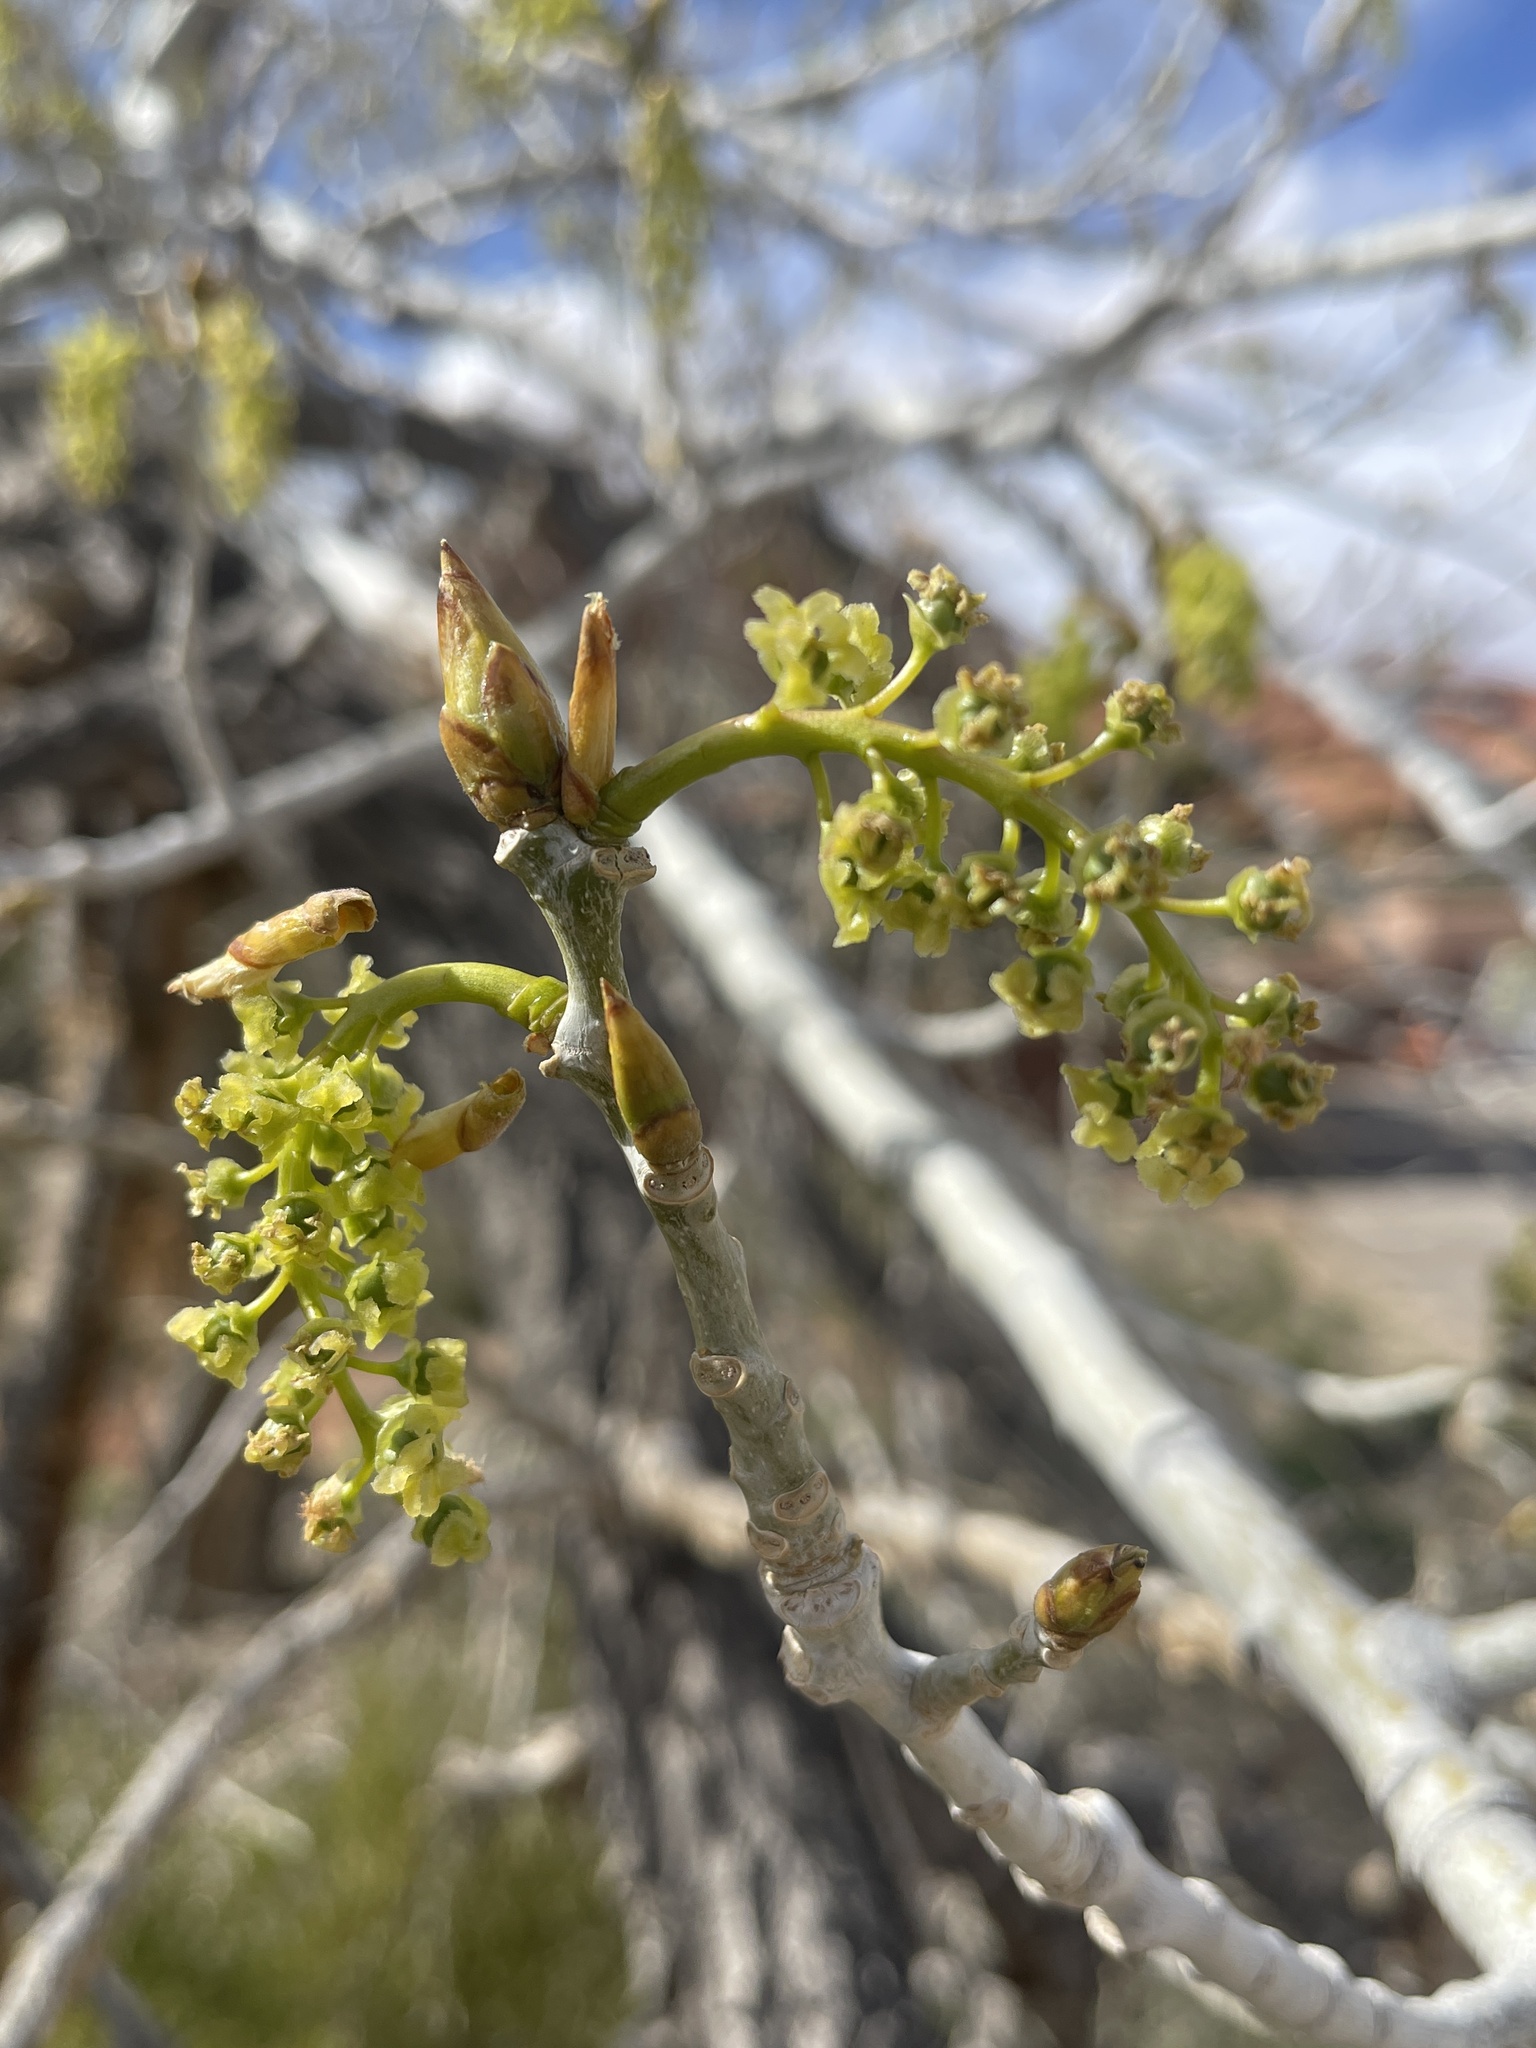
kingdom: Plantae
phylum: Tracheophyta
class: Magnoliopsida
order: Malpighiales
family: Salicaceae
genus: Populus
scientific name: Populus fremontii
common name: Fremont's cottonwood
